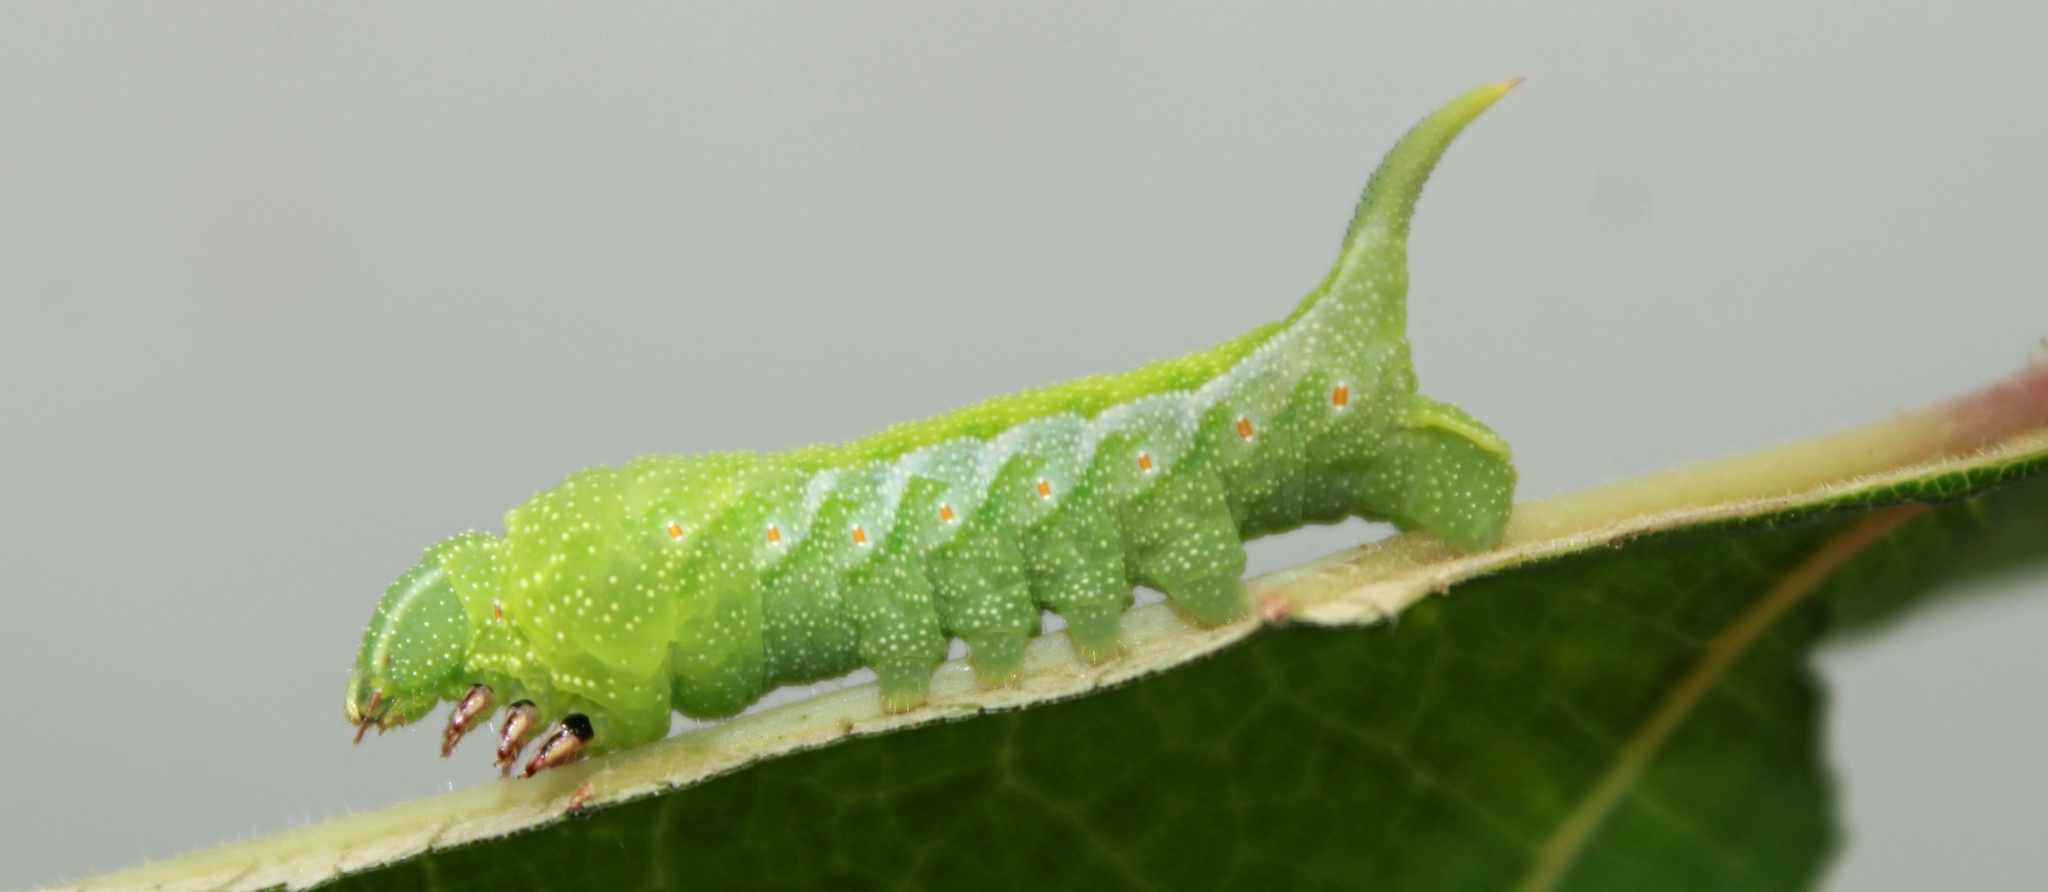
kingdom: Animalia
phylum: Arthropoda
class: Insecta
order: Lepidoptera
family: Sphingidae
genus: Darapsa
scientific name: Darapsa myron
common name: Hog sphinx
